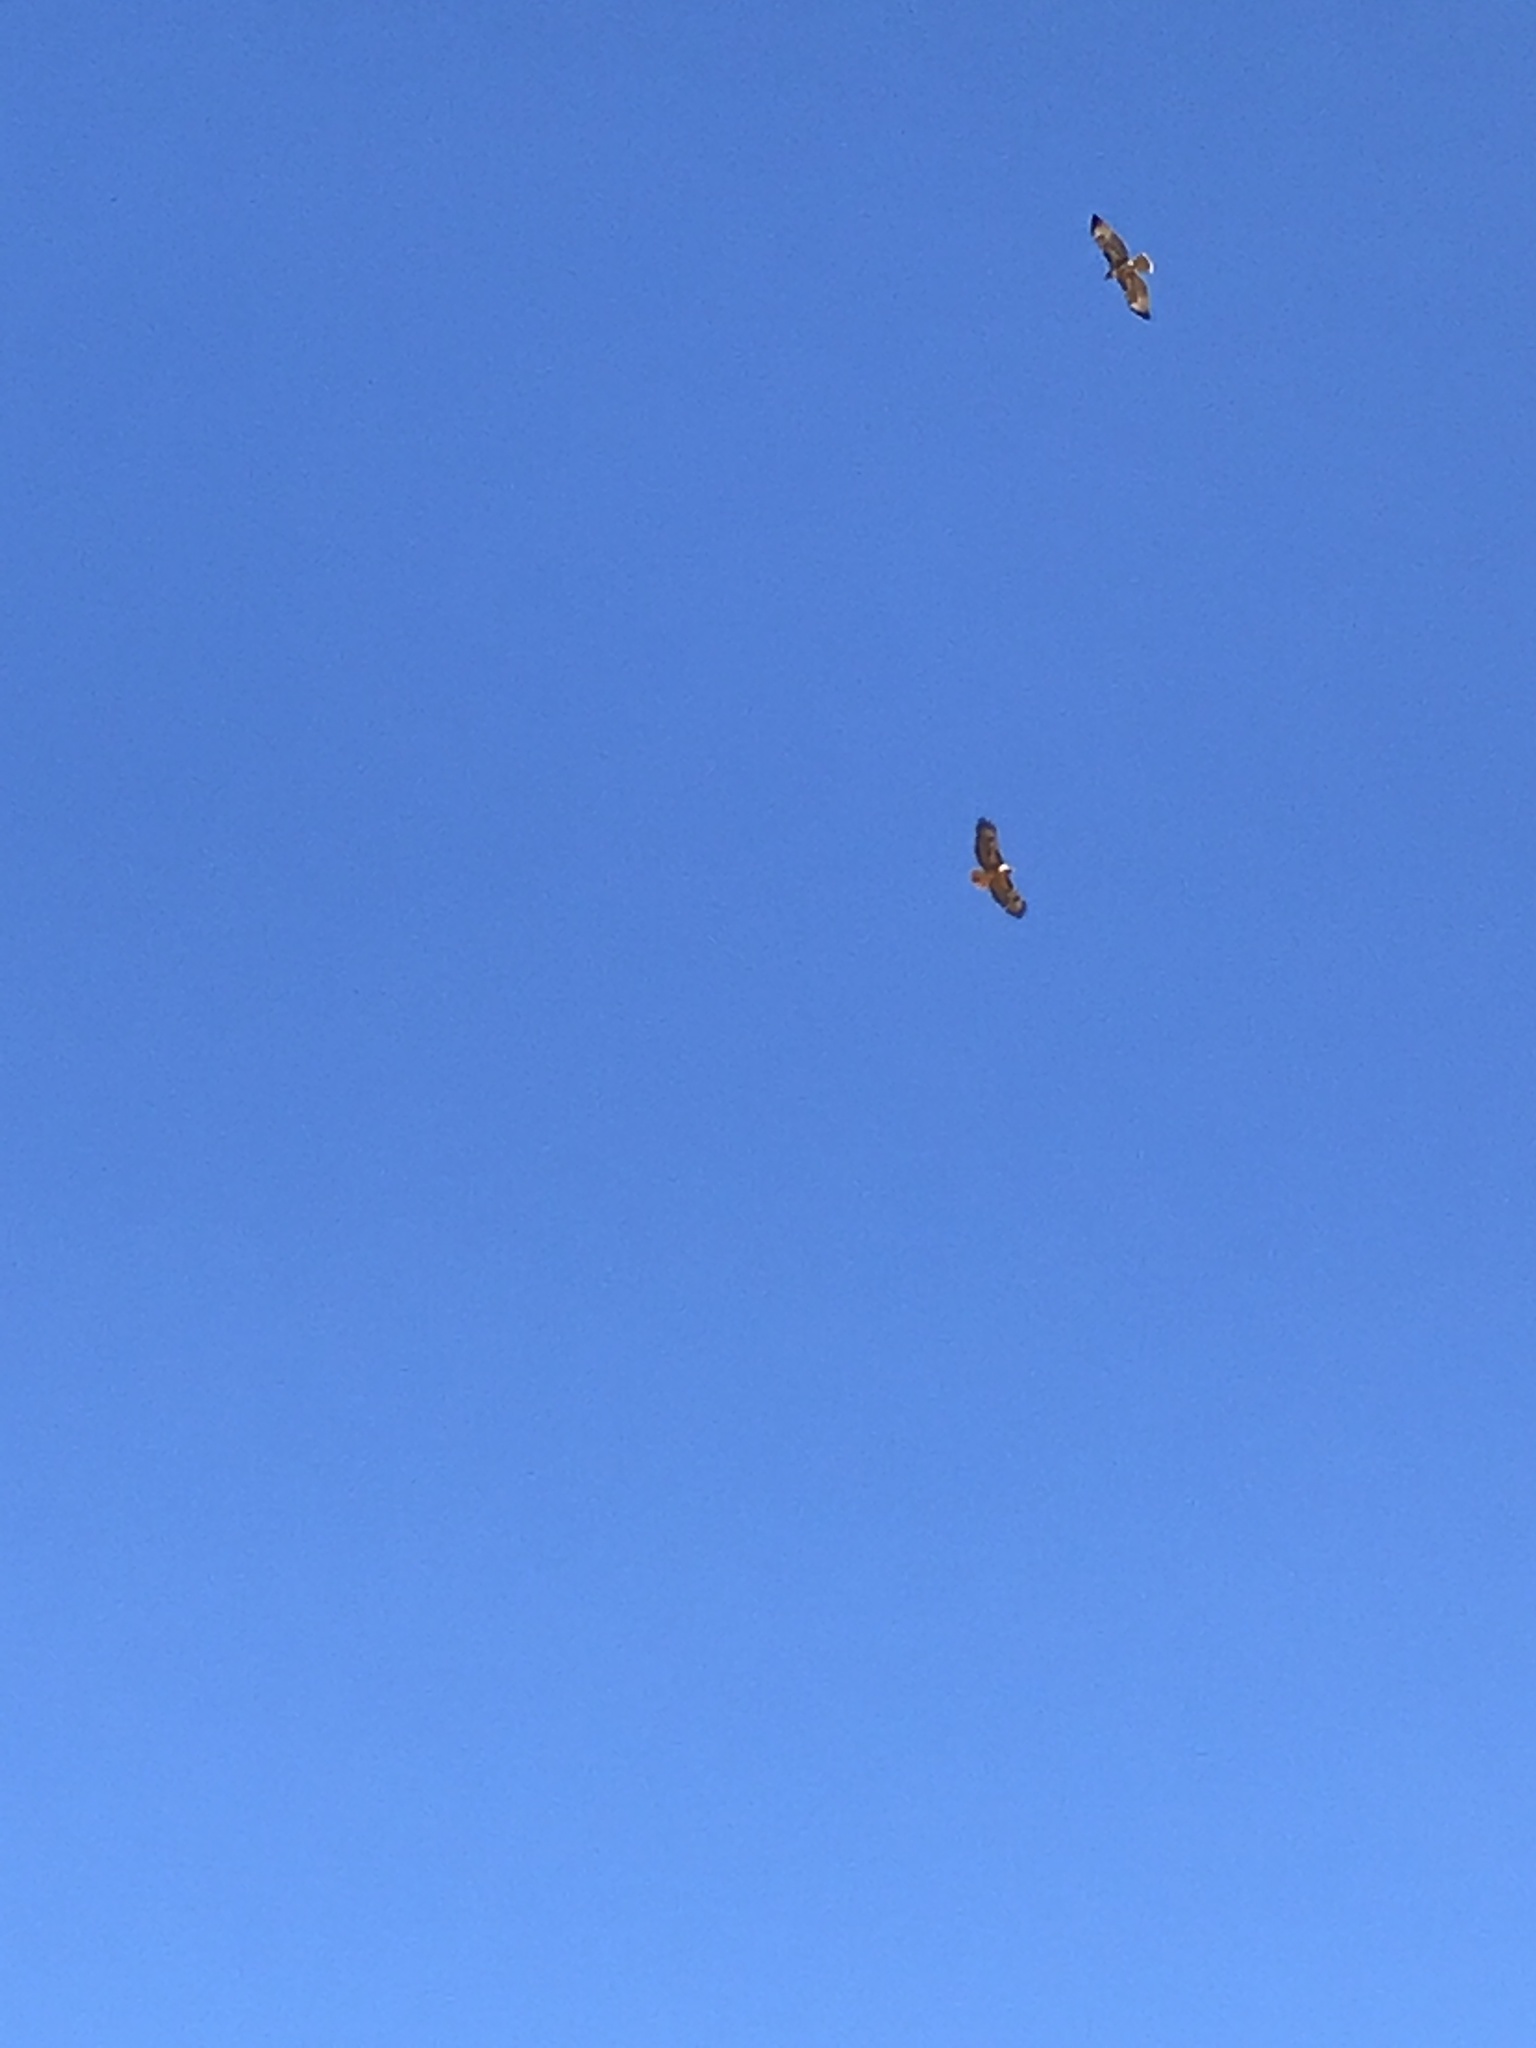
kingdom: Animalia
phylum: Chordata
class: Aves
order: Accipitriformes
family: Accipitridae
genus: Buteo
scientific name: Buteo jamaicensis
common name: Red-tailed hawk
